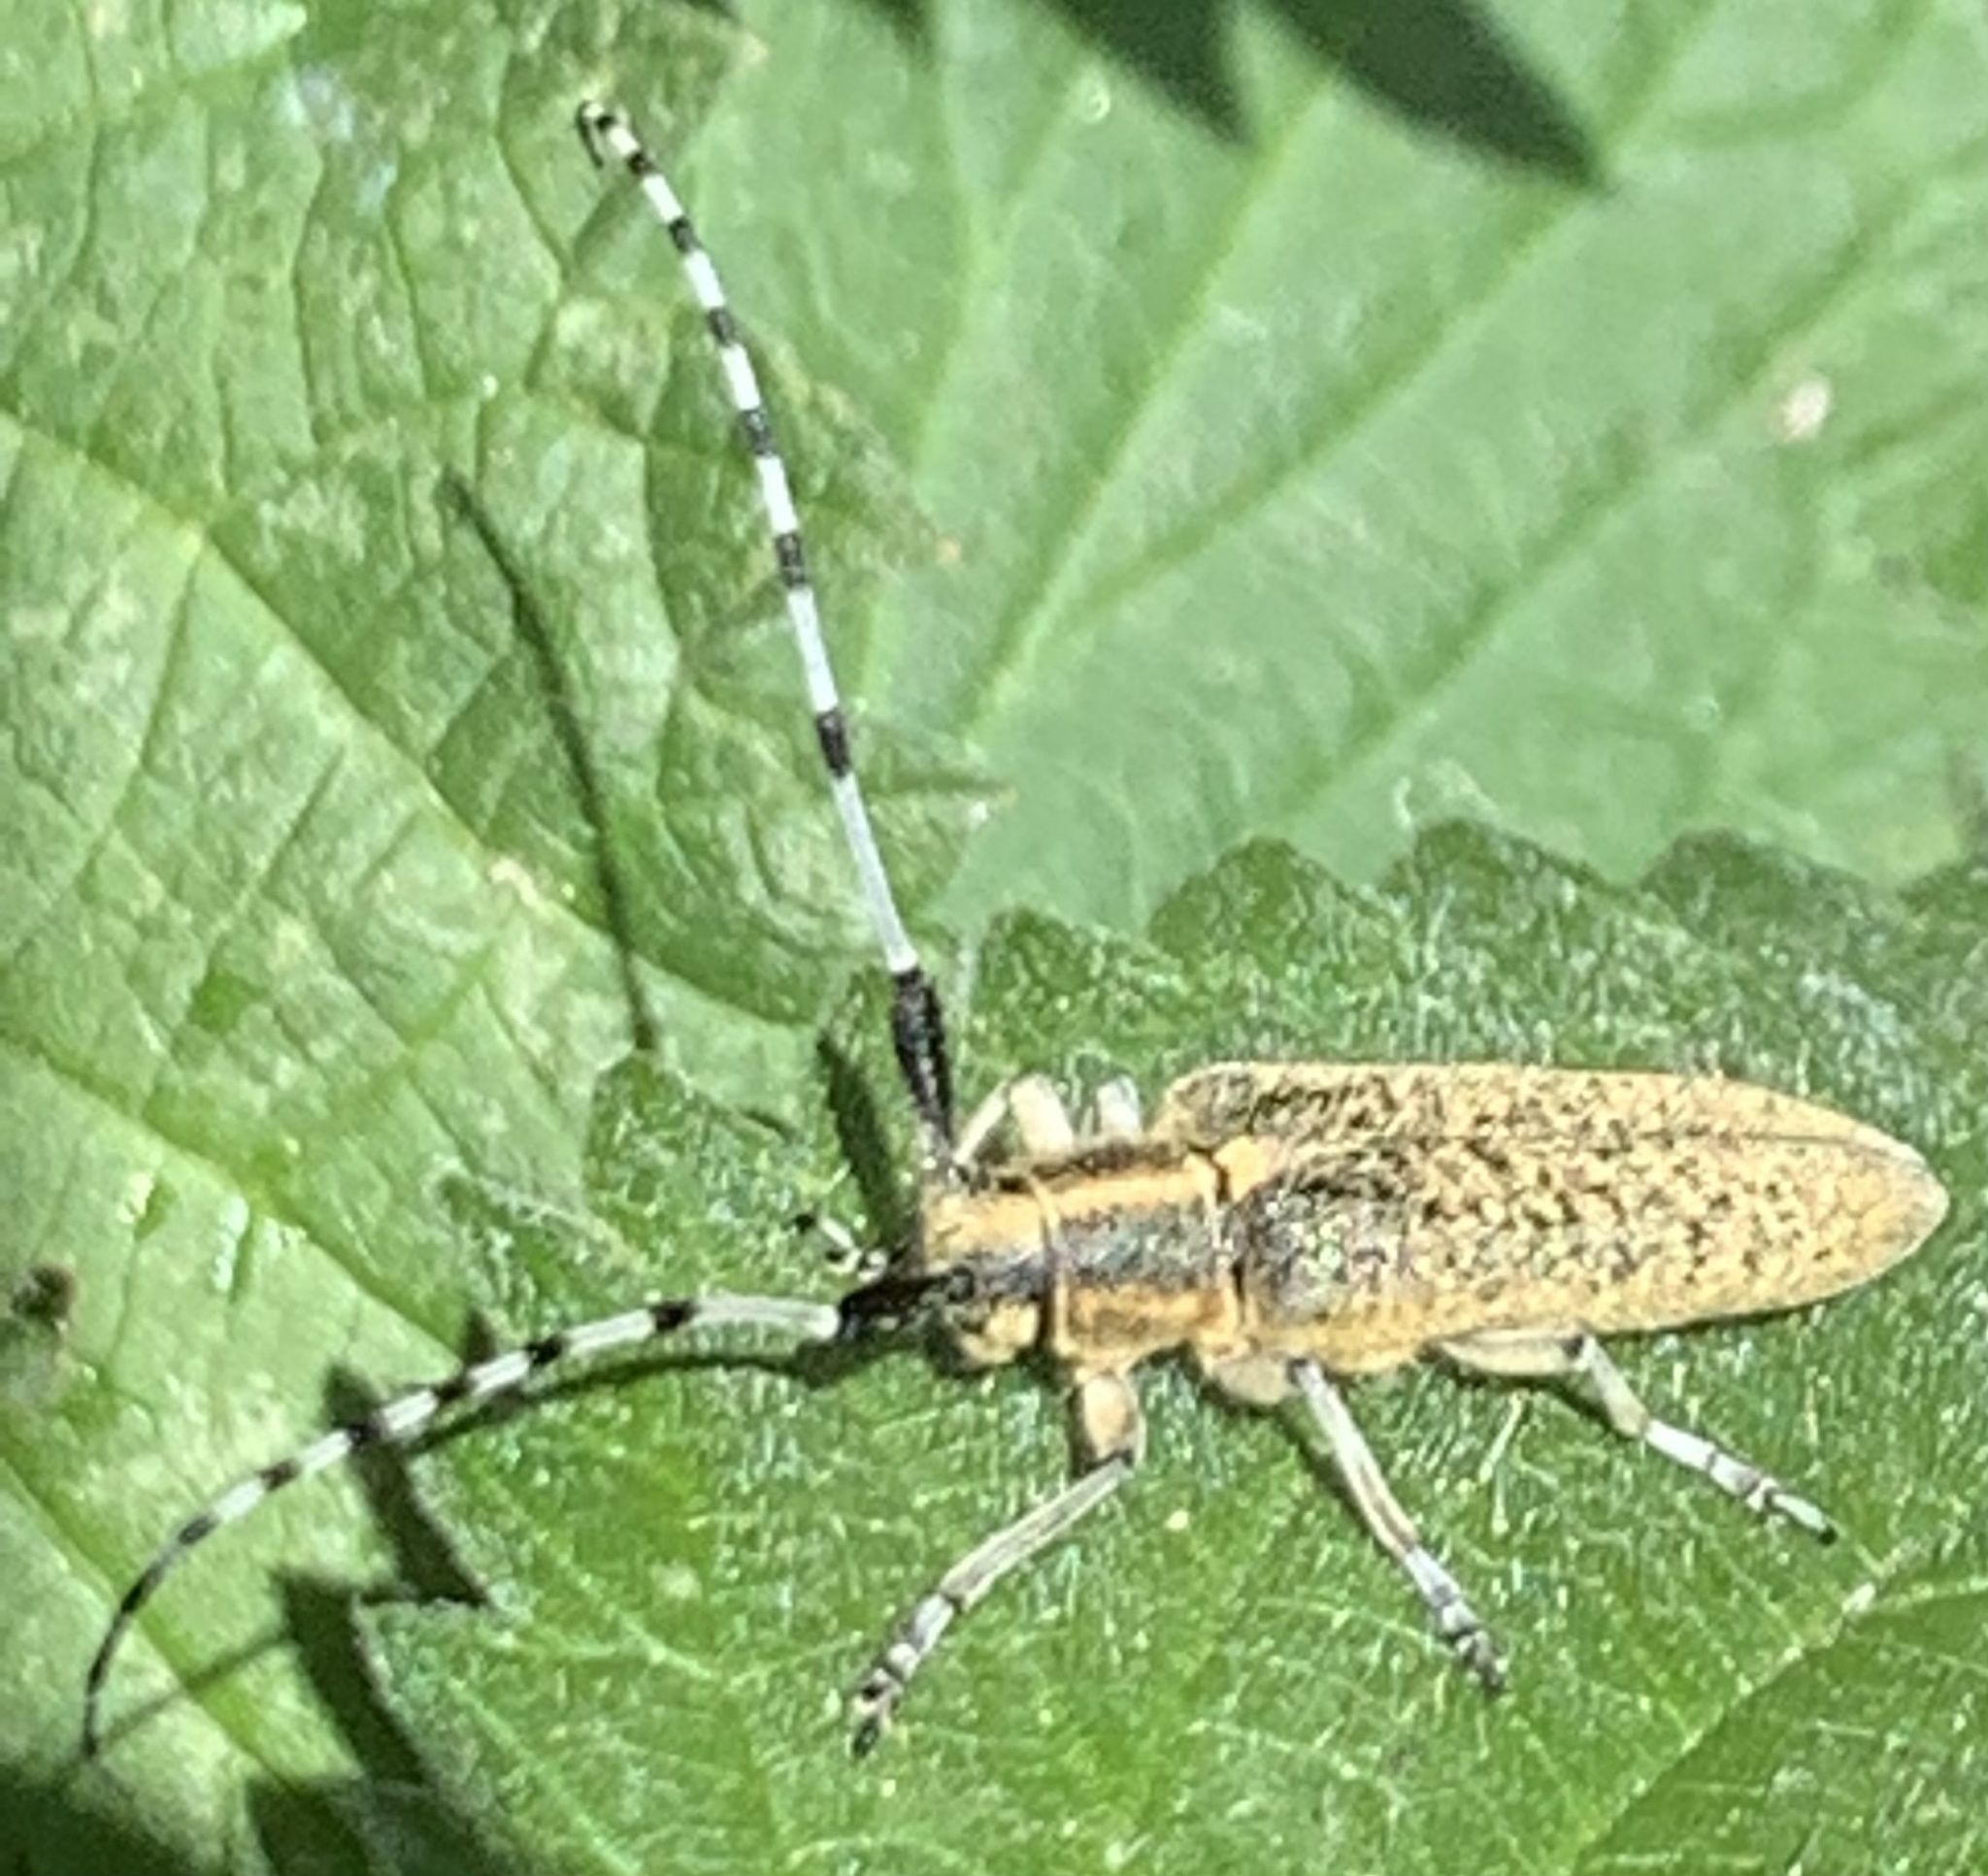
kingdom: Animalia
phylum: Arthropoda
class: Insecta
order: Coleoptera
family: Cerambycidae
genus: Agapanthia
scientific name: Agapanthia villosoviridescens
